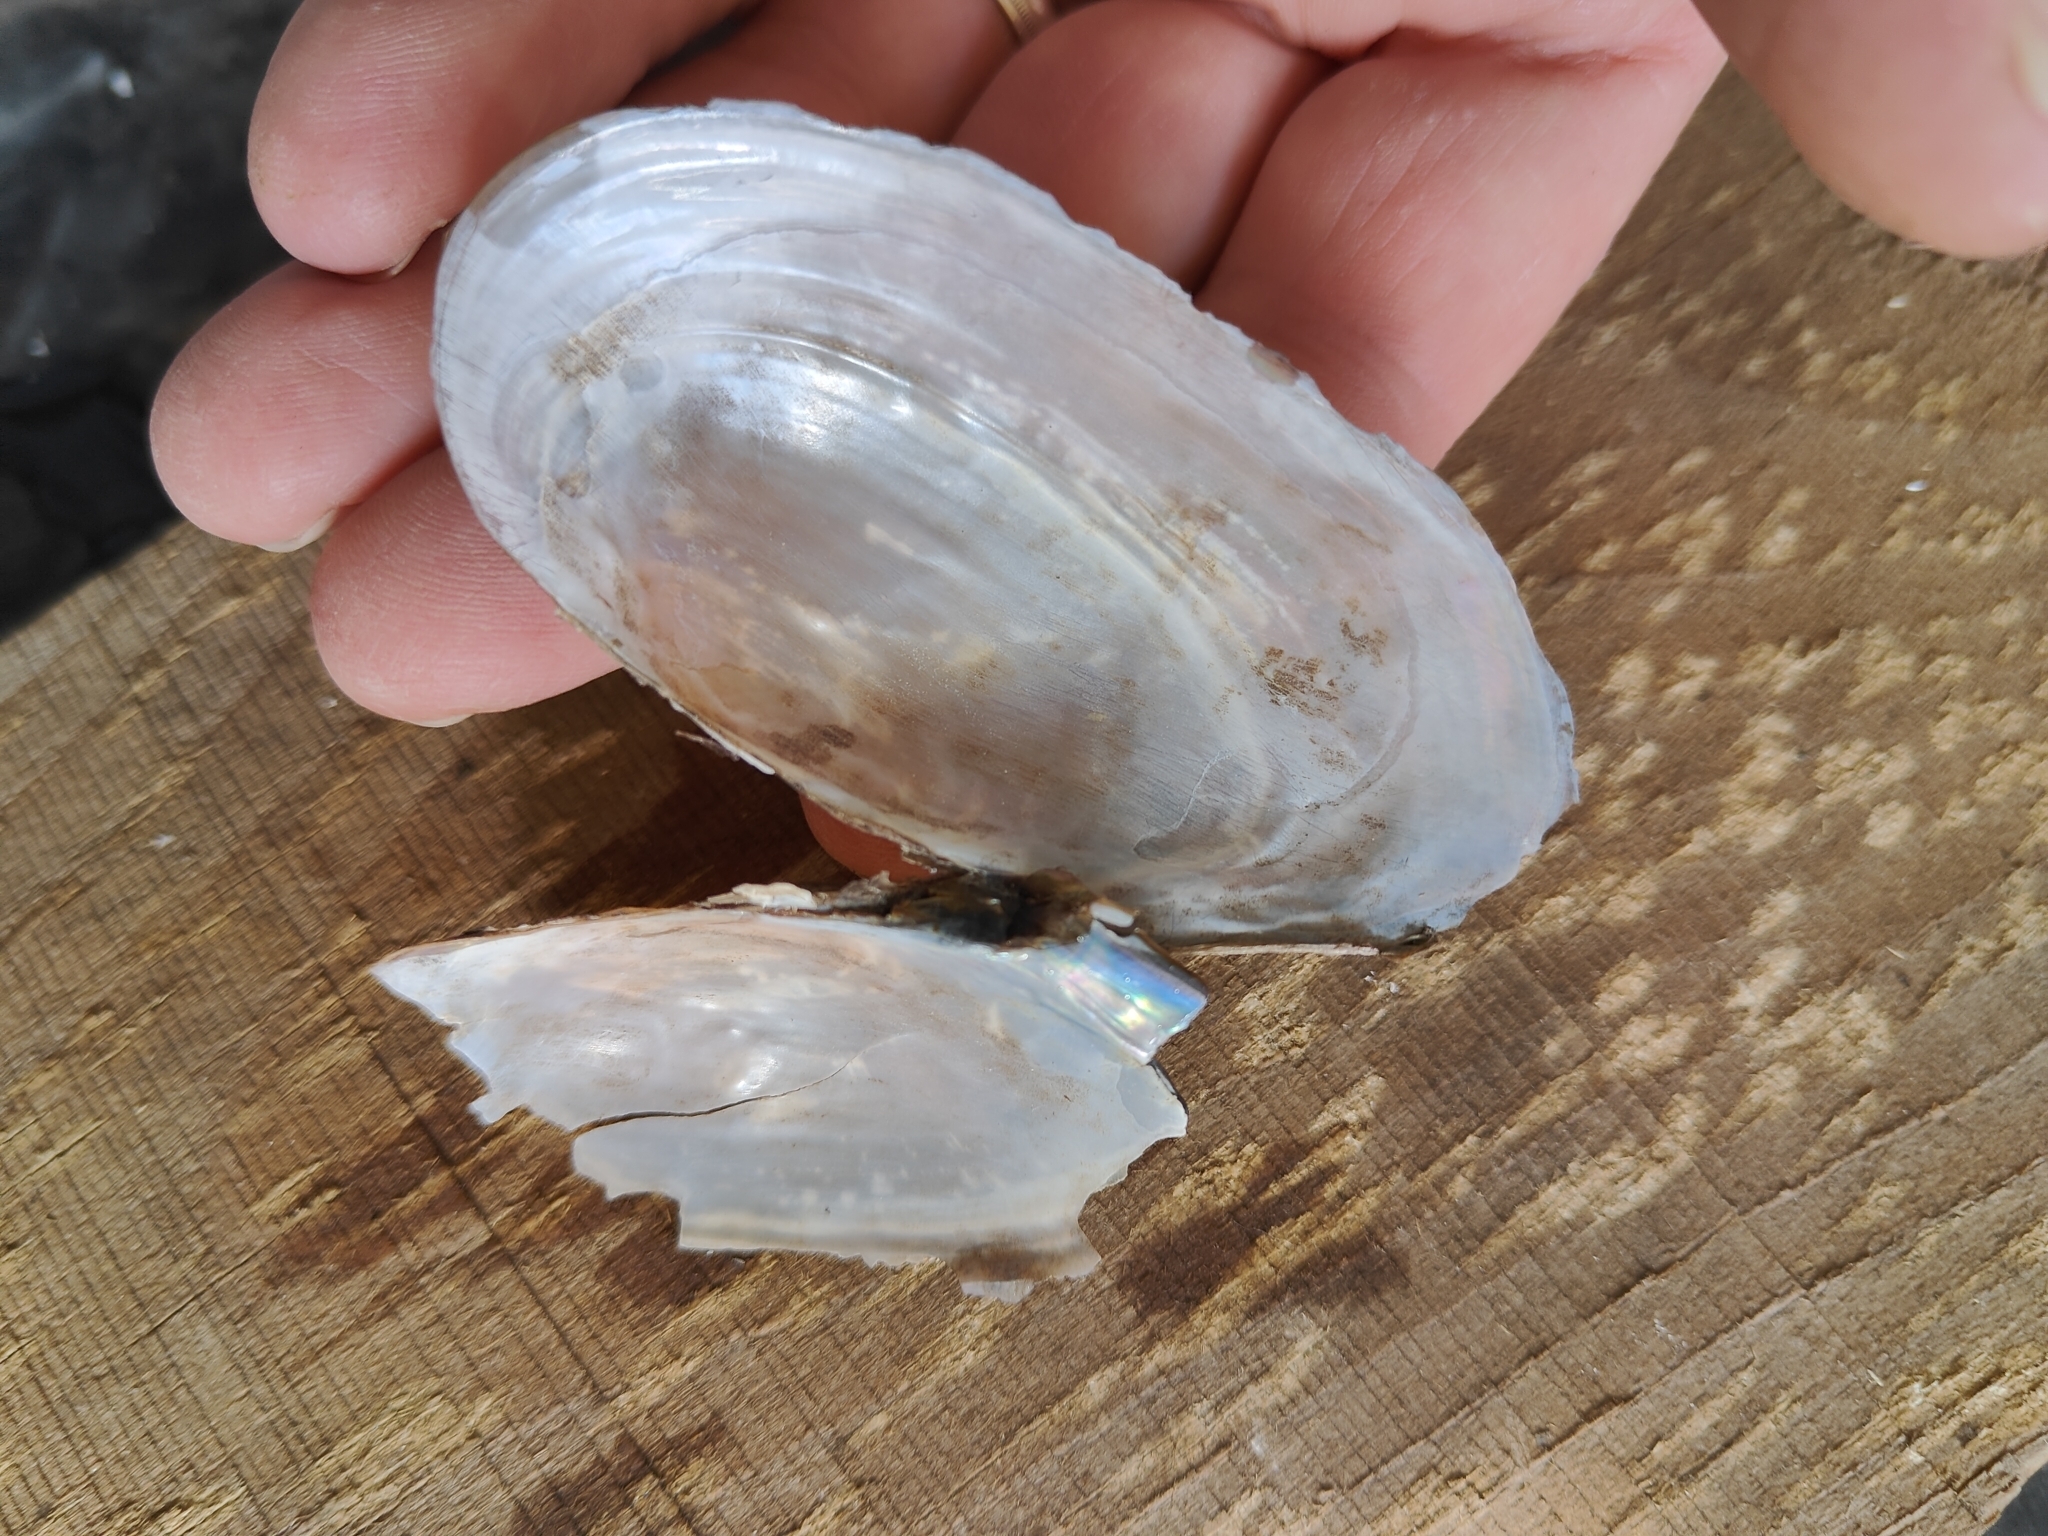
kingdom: Animalia
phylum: Mollusca
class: Bivalvia
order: Unionida
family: Unionidae
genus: Utterbackia
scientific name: Utterbackia imbecillis
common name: Paper pondshell
